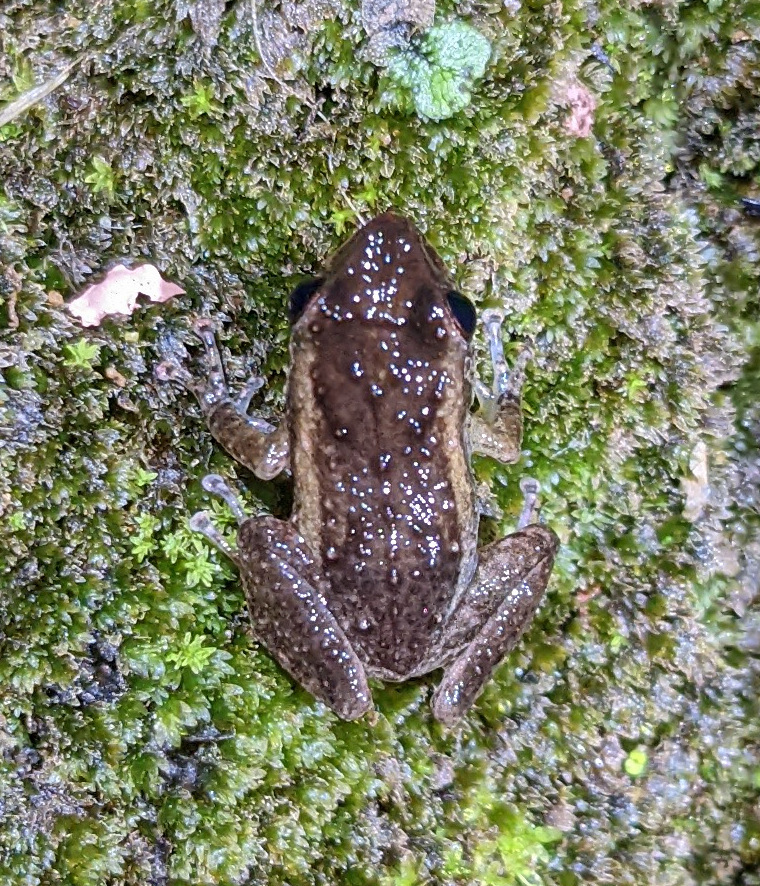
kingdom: Animalia
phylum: Chordata
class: Amphibia
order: Anura
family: Eleutherodactylidae
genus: Eleutherodactylus
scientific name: Eleutherodactylus coqui
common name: Coqui frog
